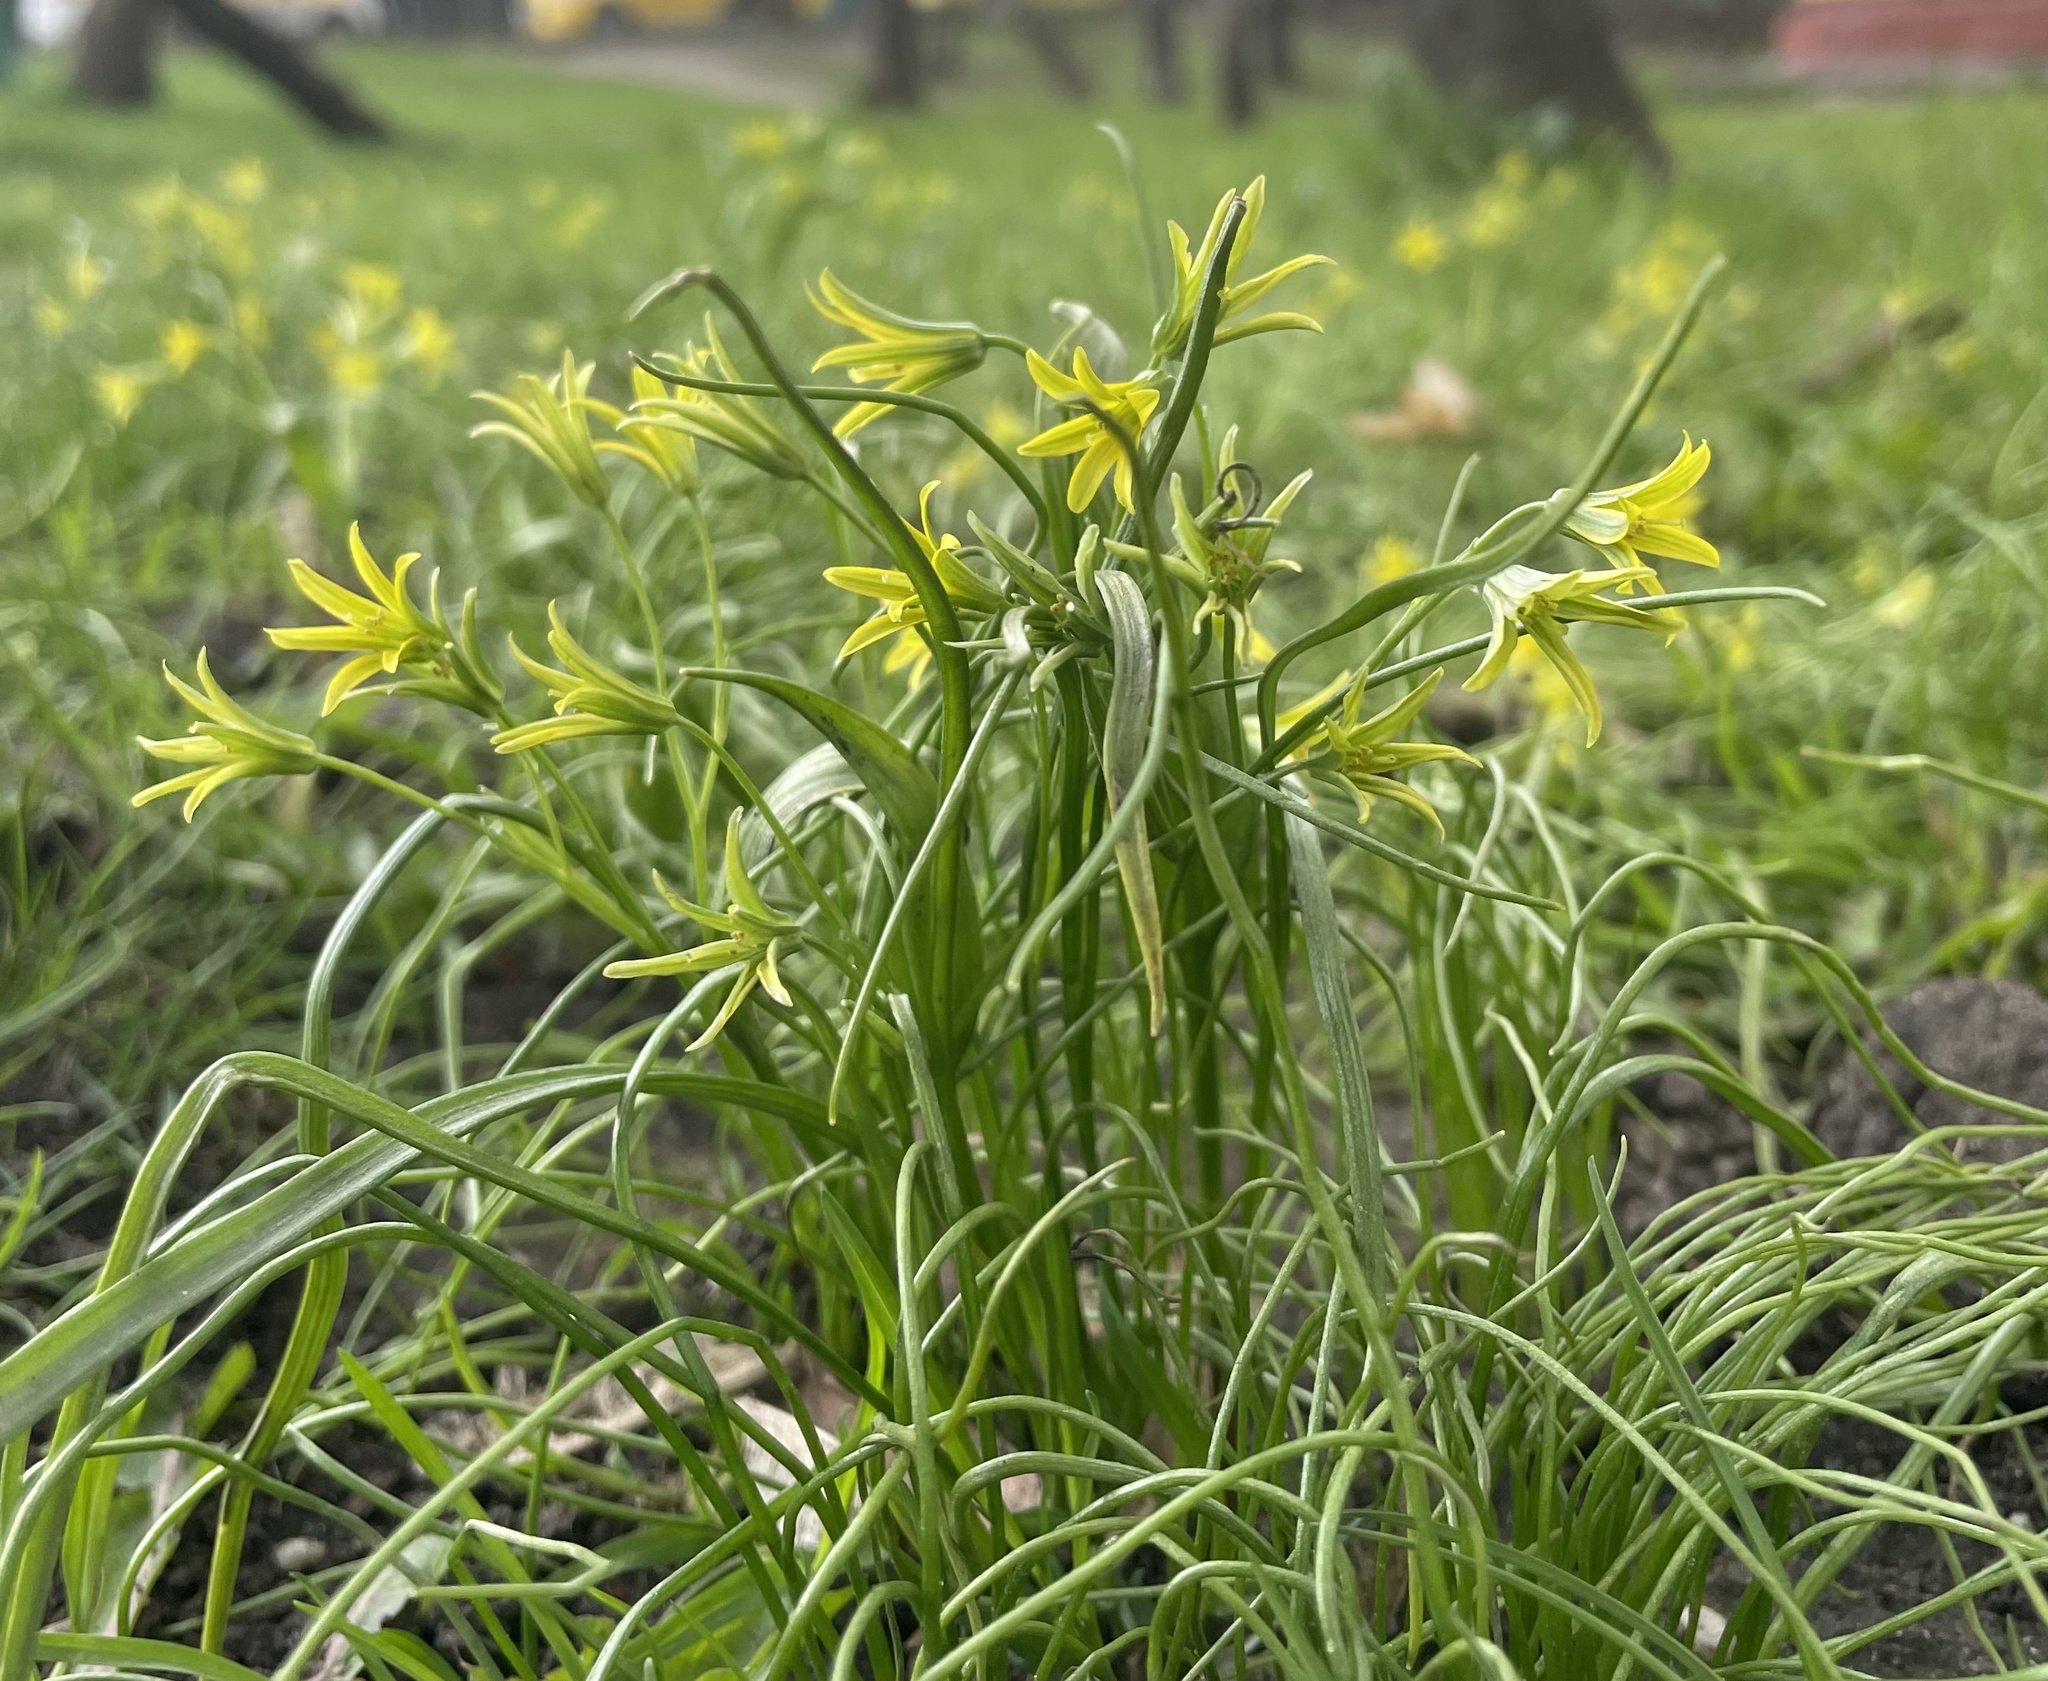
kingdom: Plantae
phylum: Tracheophyta
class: Liliopsida
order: Liliales
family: Liliaceae
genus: Gagea
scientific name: Gagea minima
